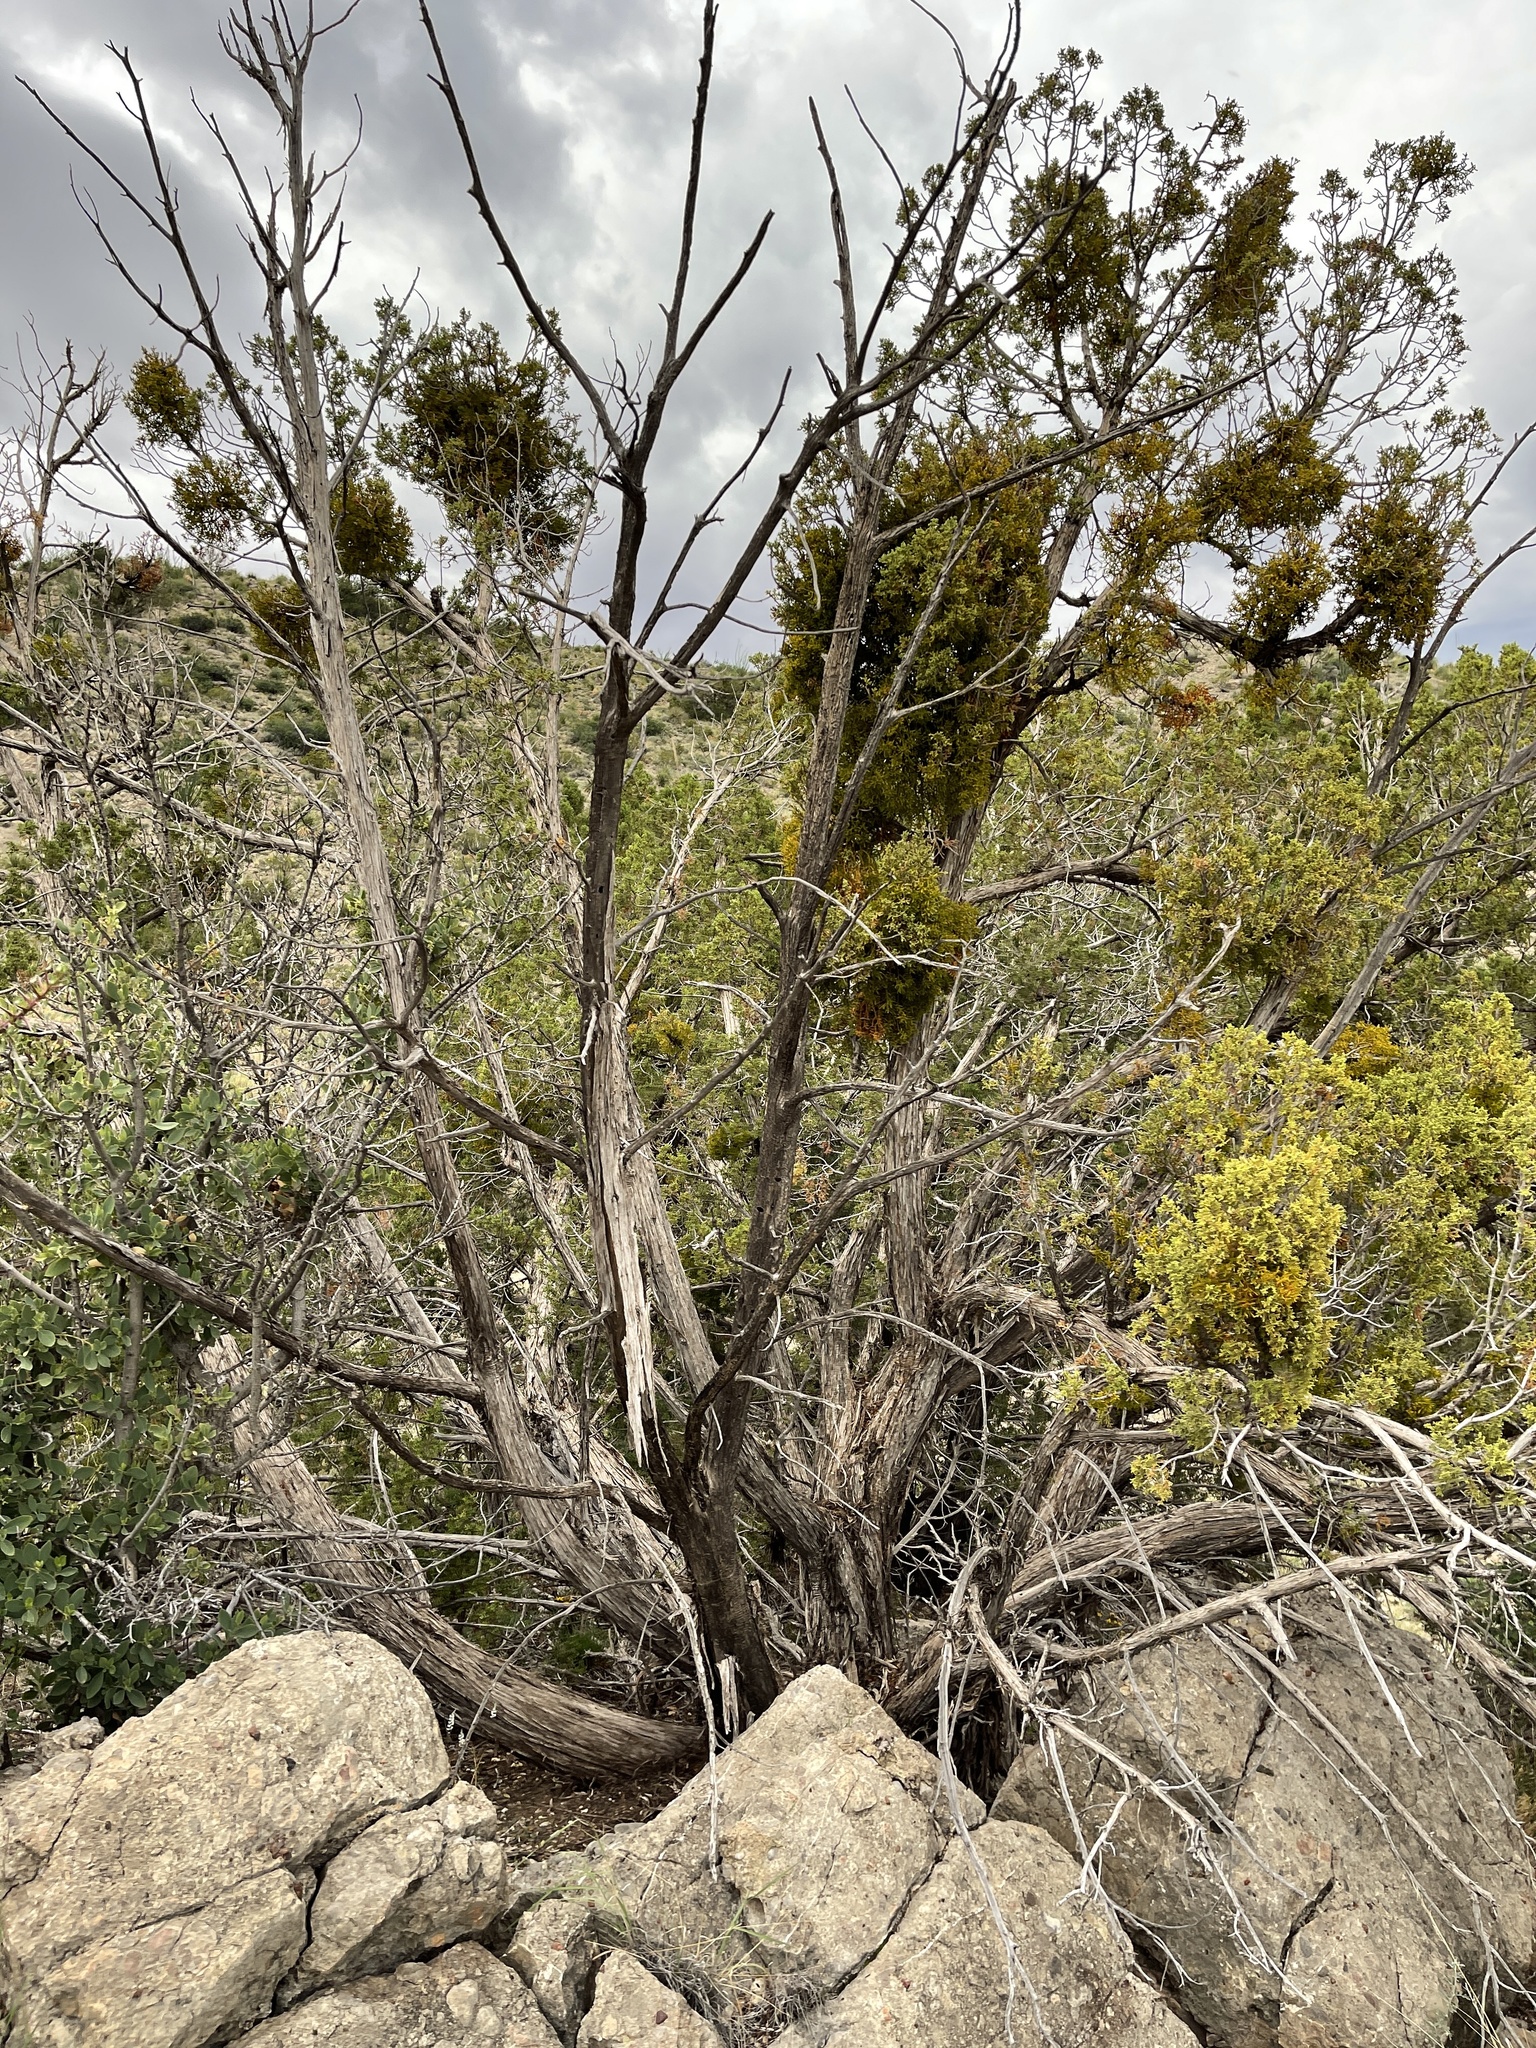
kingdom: Plantae
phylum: Tracheophyta
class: Pinopsida
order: Pinales
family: Cupressaceae
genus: Juniperus
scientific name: Juniperus monosperma
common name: One-seed juniper
